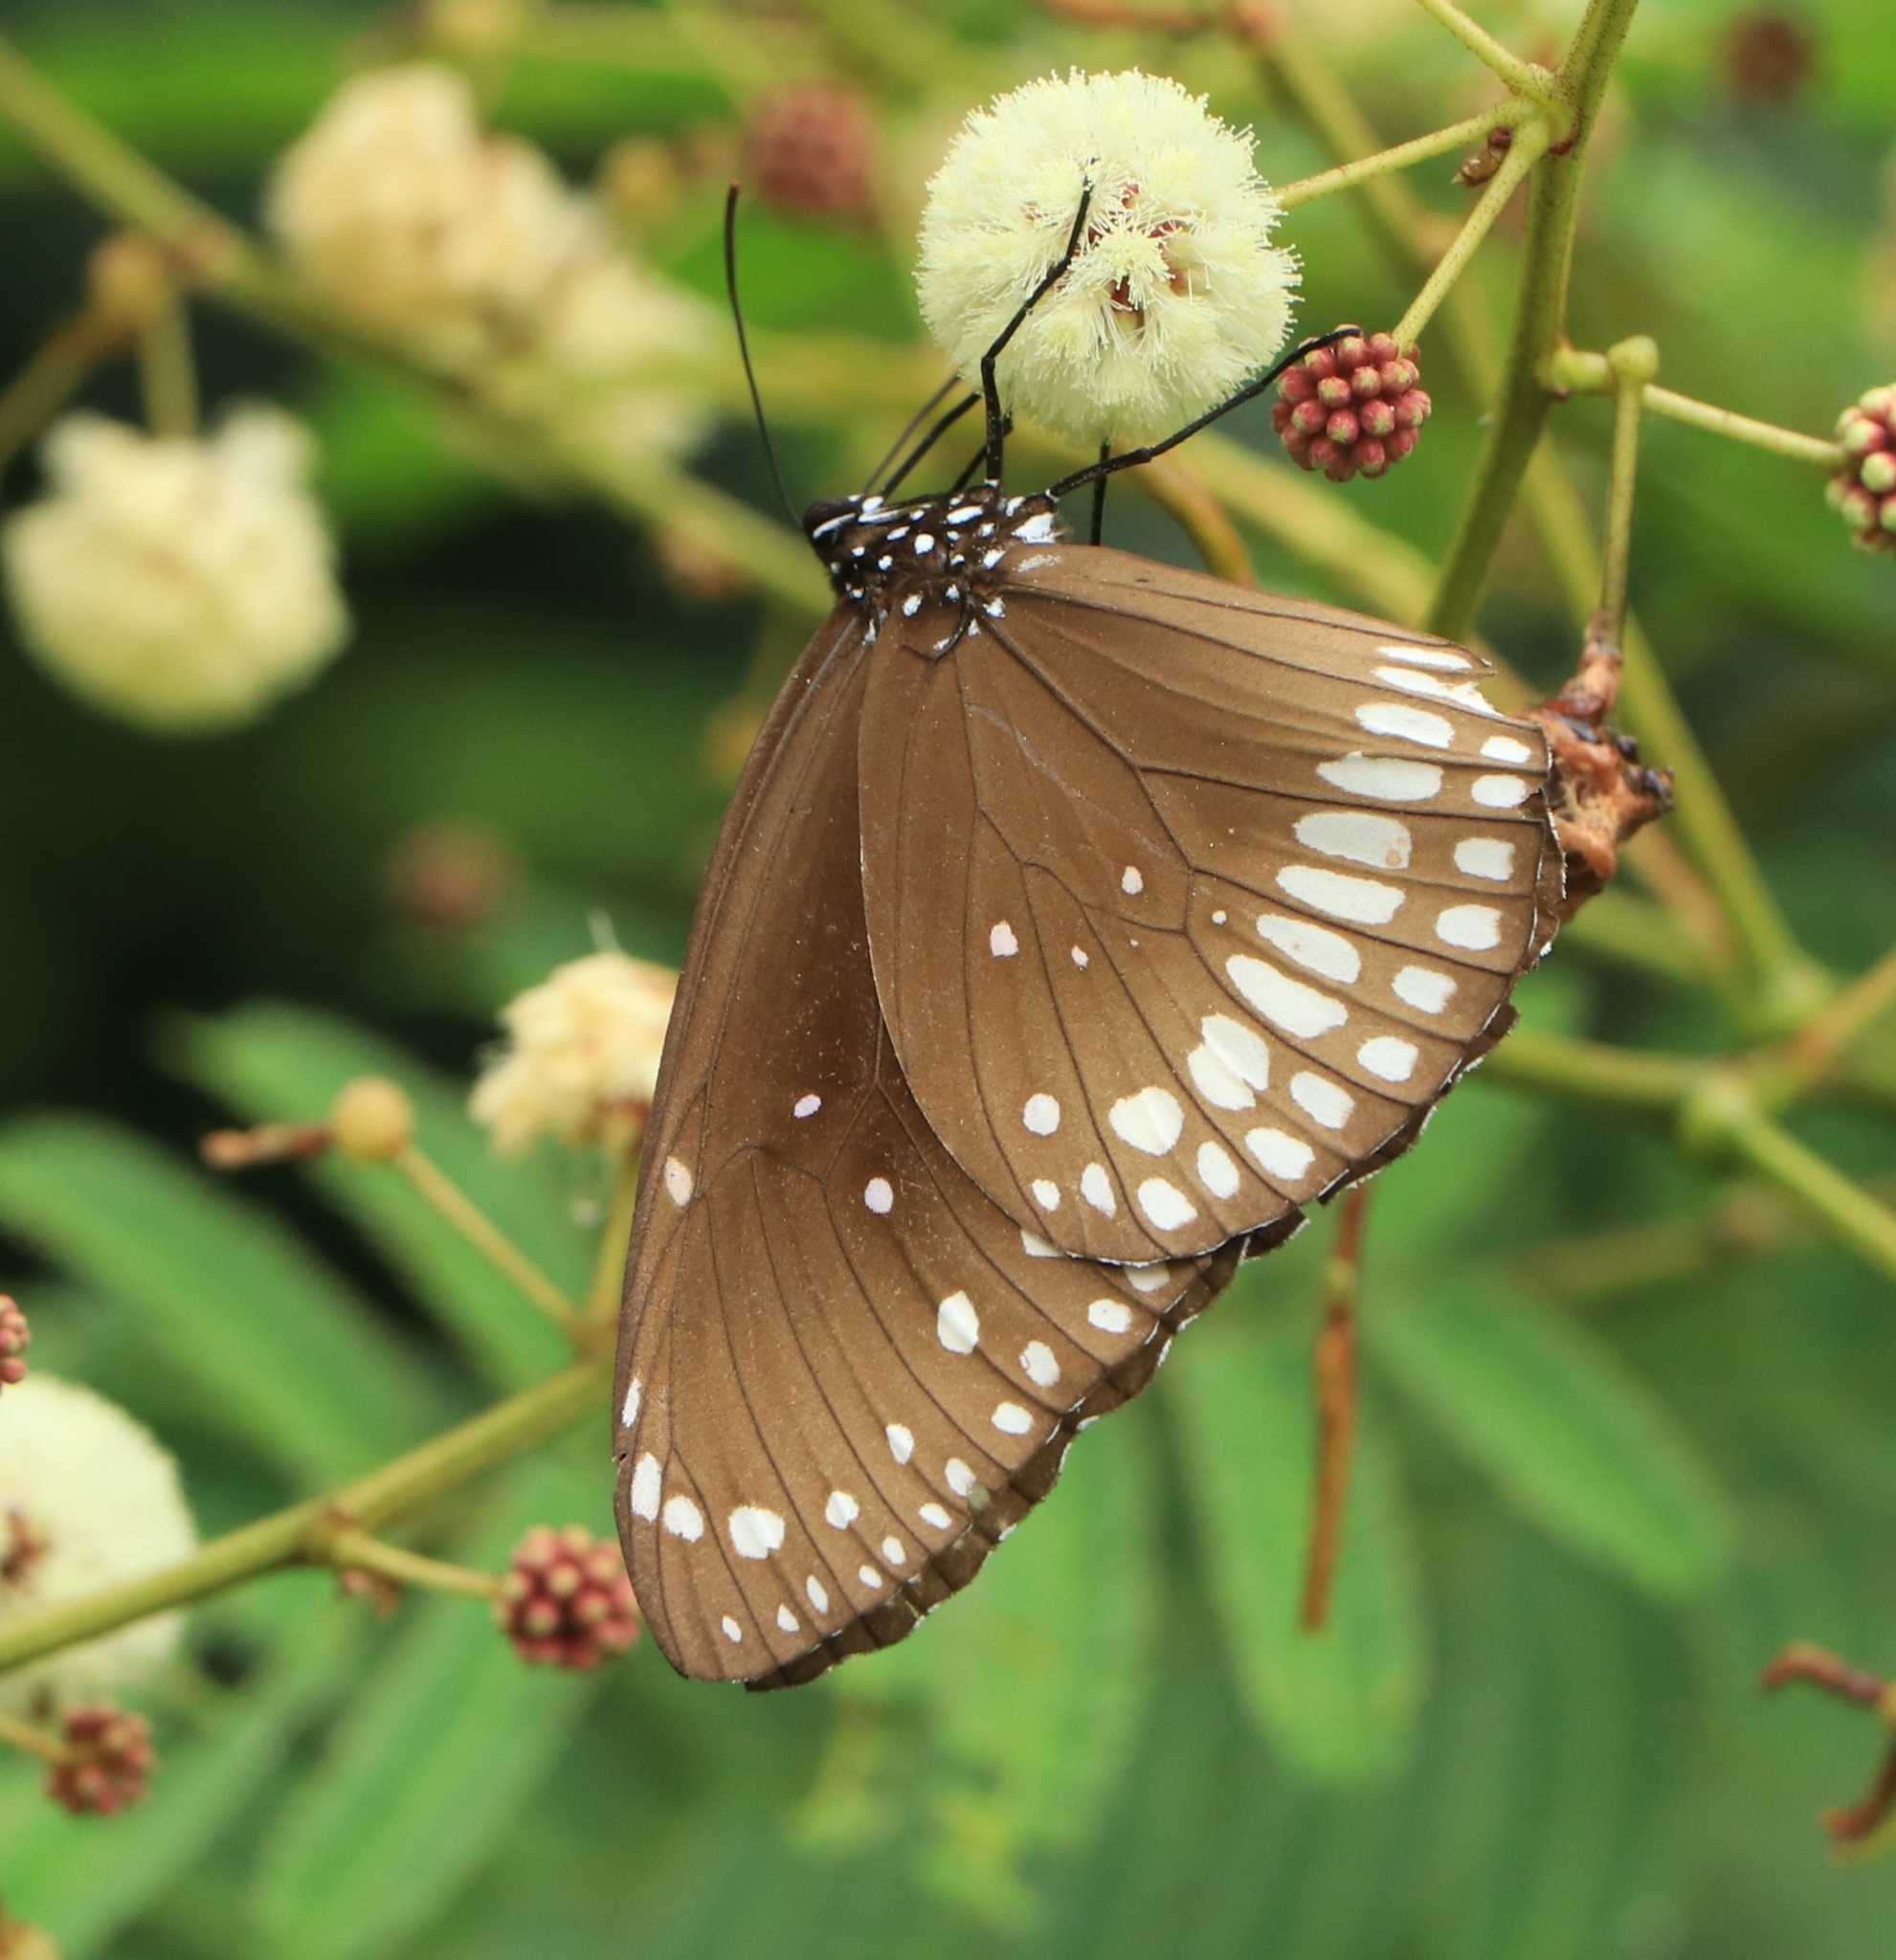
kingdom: Animalia
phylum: Arthropoda
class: Insecta
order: Lepidoptera
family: Nymphalidae
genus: Euploea
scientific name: Euploea core
